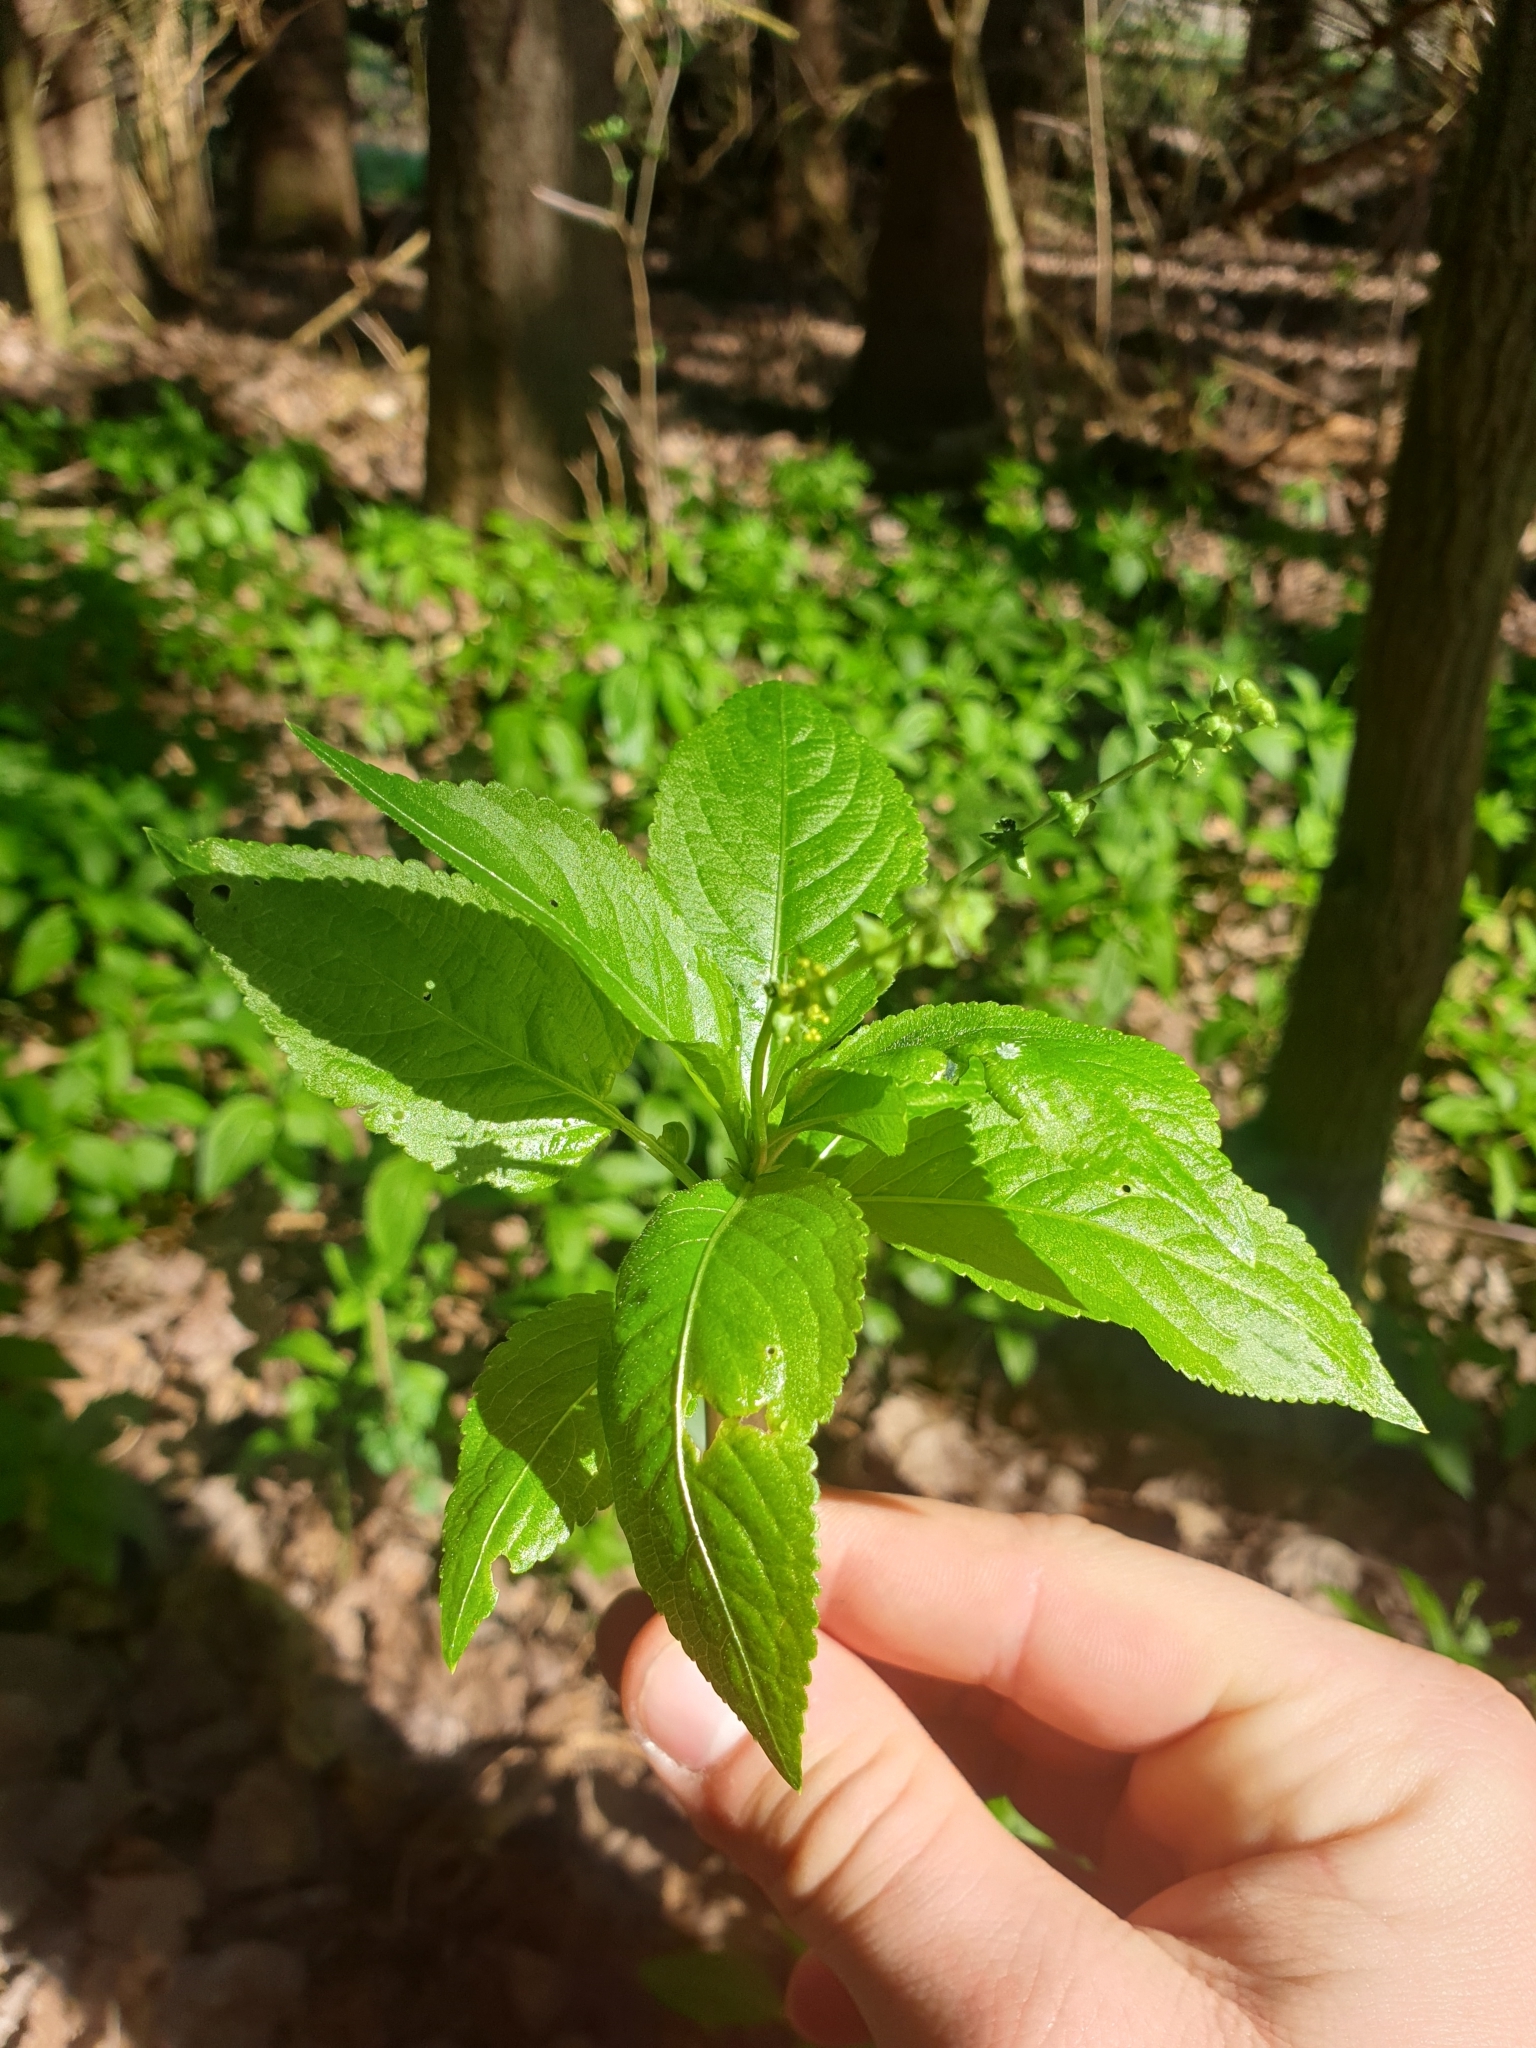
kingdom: Plantae
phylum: Tracheophyta
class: Magnoliopsida
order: Malpighiales
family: Euphorbiaceae
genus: Mercurialis
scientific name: Mercurialis perennis
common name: Dog mercury
